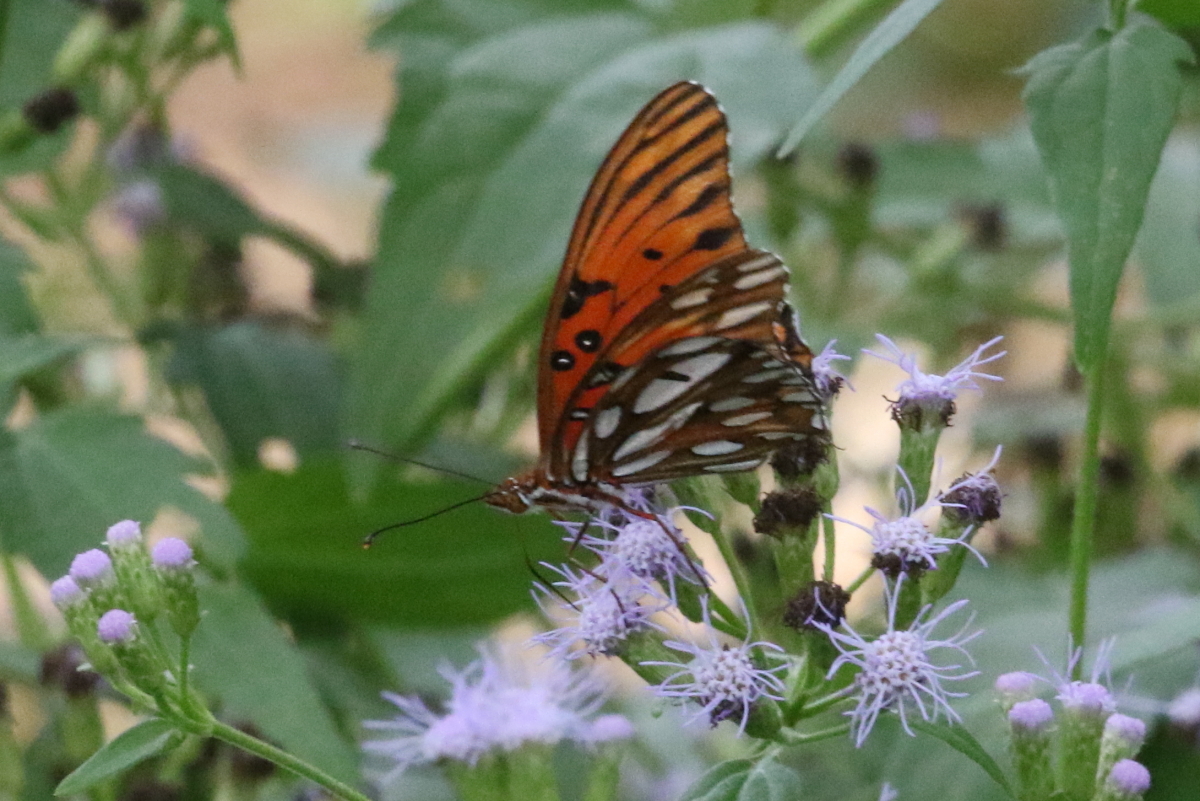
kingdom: Animalia
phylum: Arthropoda
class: Insecta
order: Lepidoptera
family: Nymphalidae
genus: Dione
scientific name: Dione vanillae
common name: Gulf fritillary
